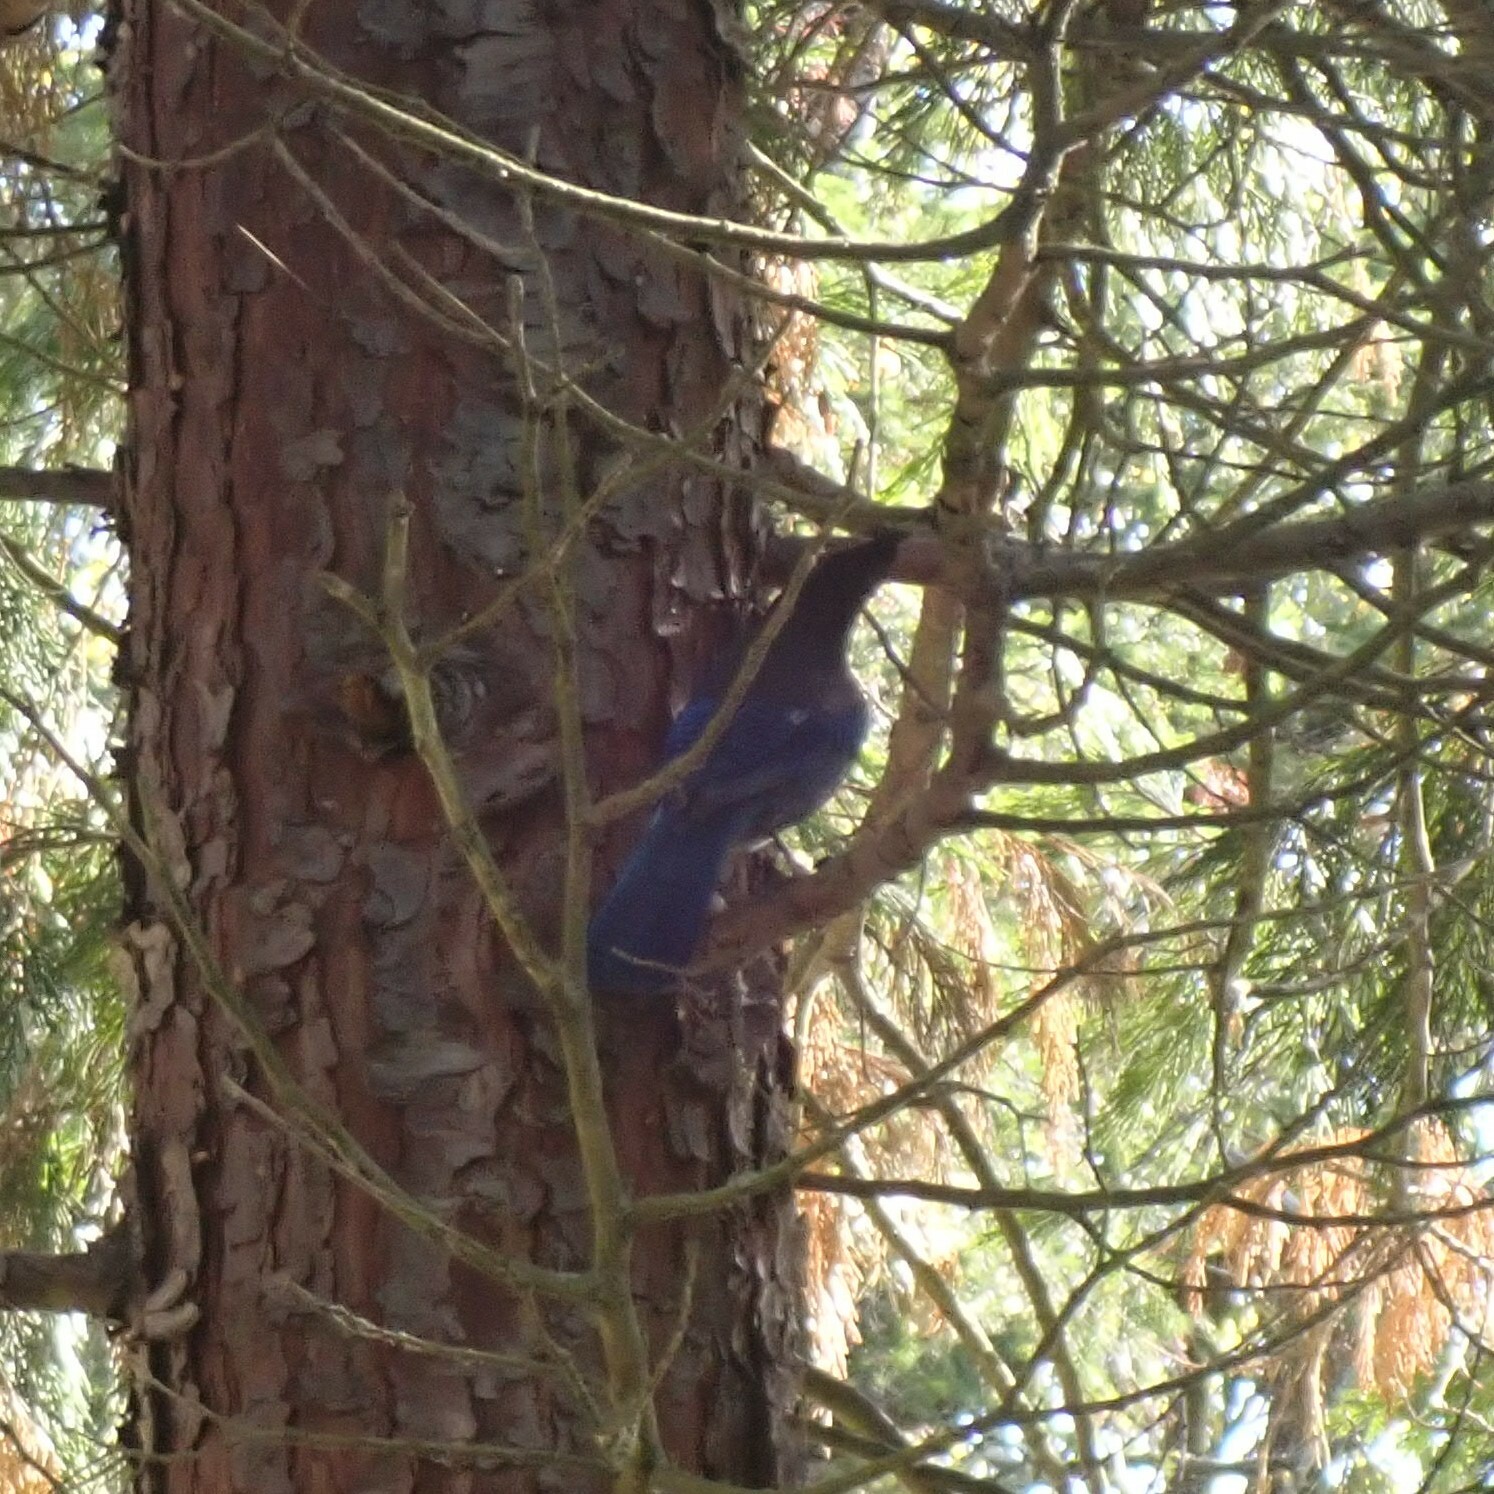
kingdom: Animalia
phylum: Chordata
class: Aves
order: Passeriformes
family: Corvidae
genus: Cyanocitta
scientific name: Cyanocitta stelleri
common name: Steller's jay
